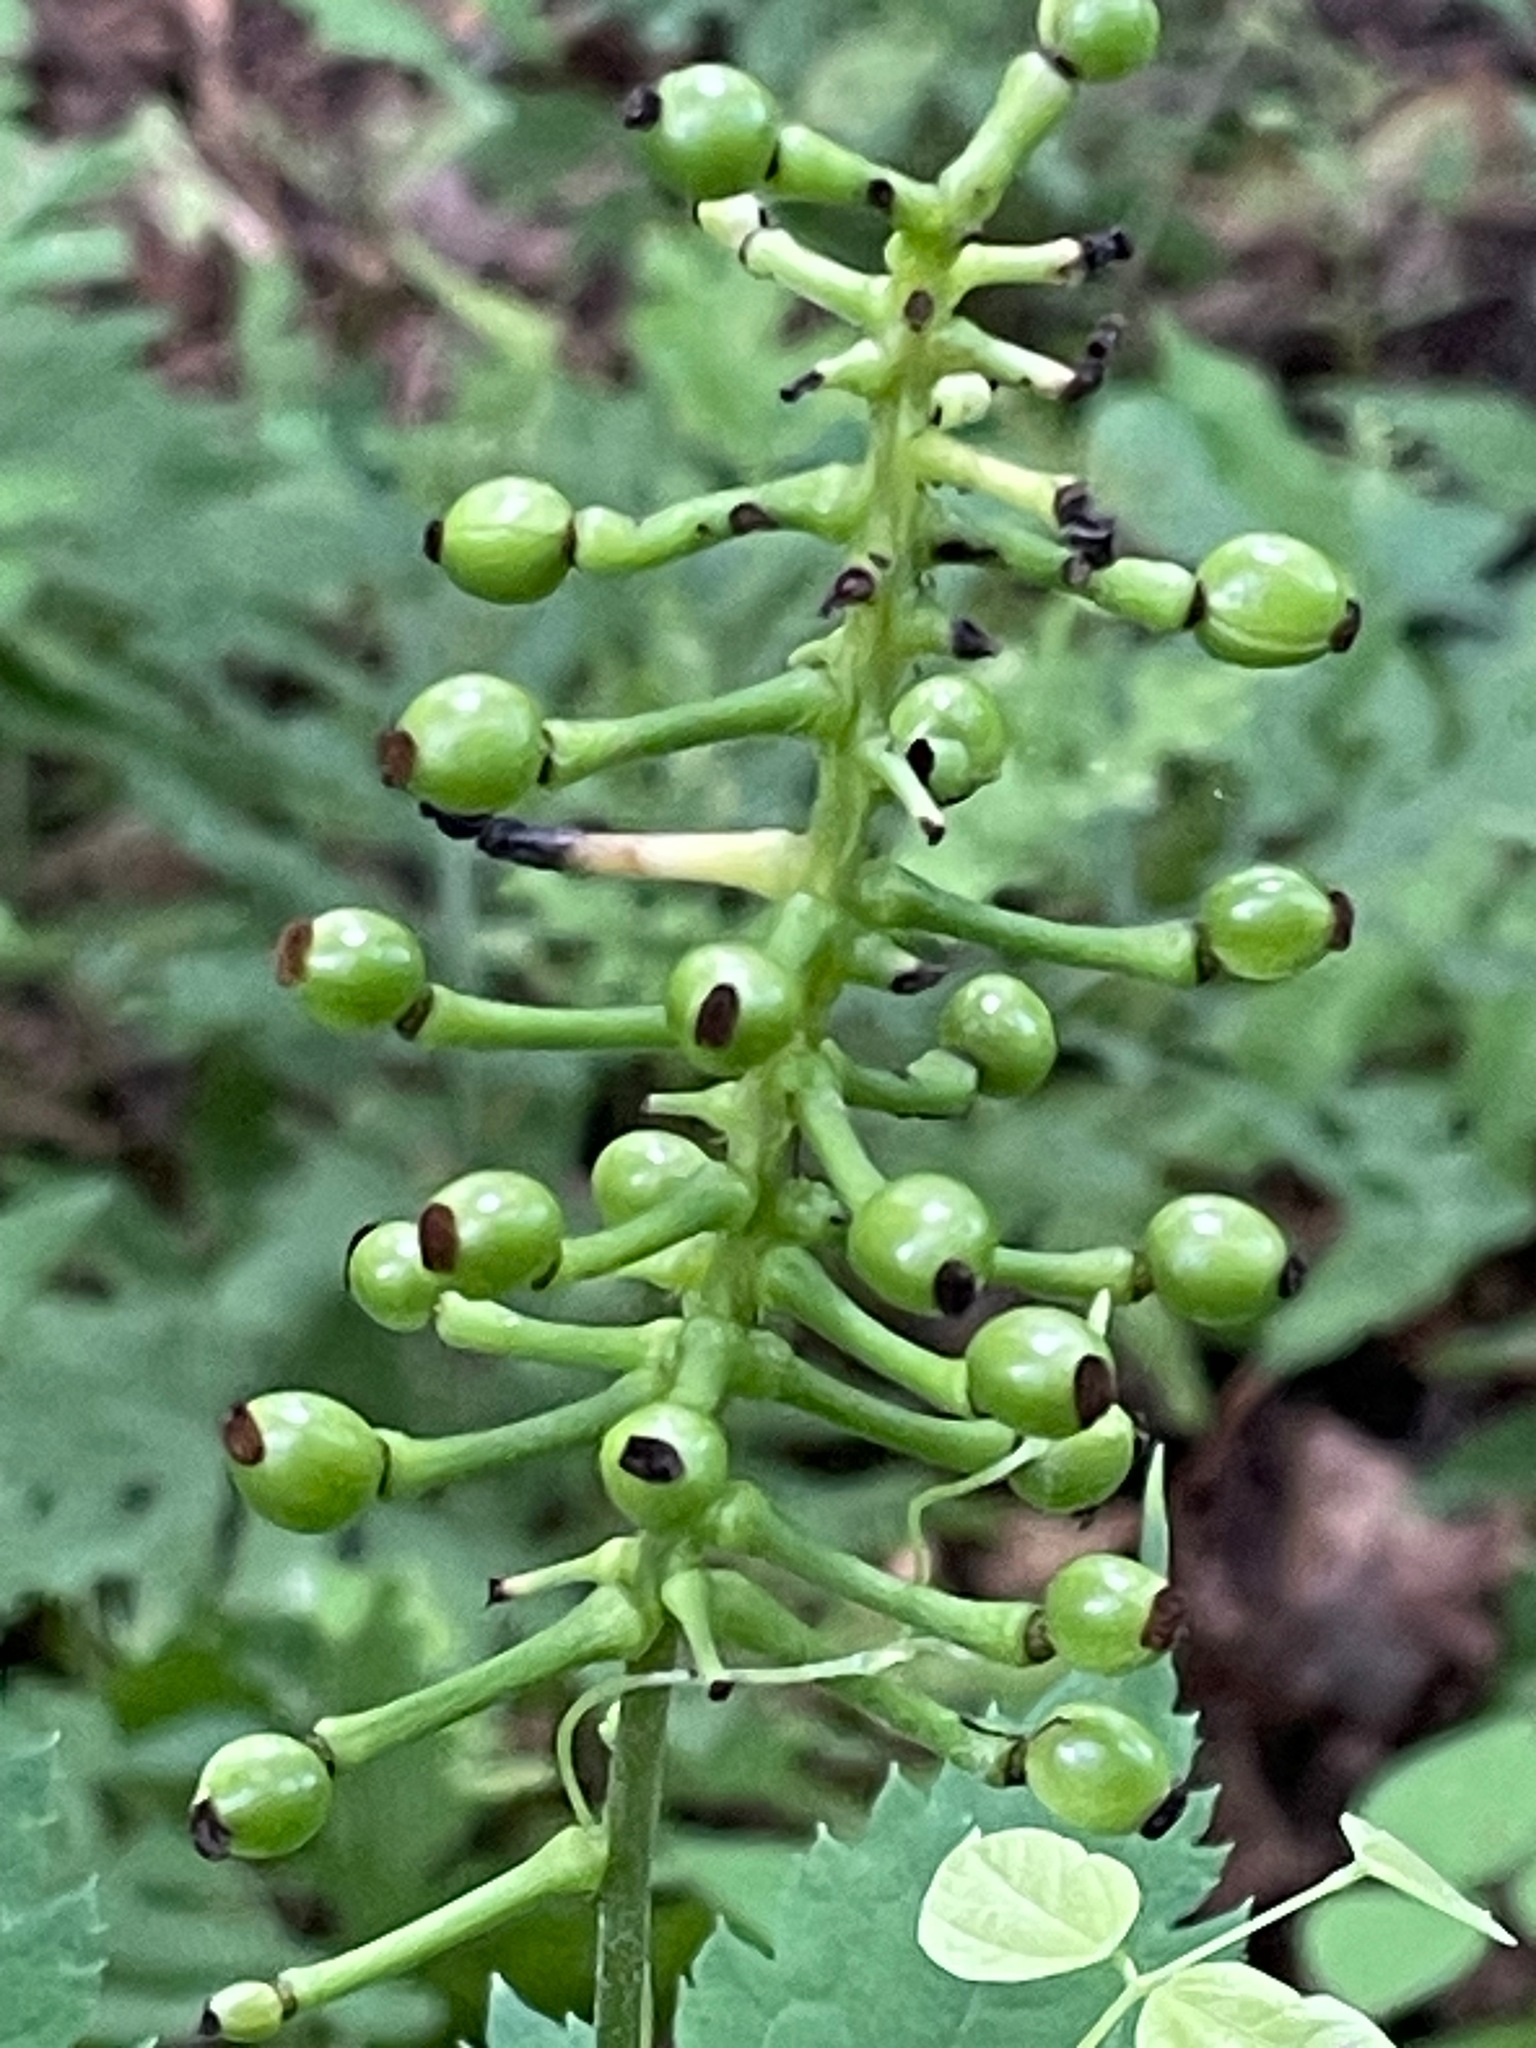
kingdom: Plantae
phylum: Tracheophyta
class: Magnoliopsida
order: Ranunculales
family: Ranunculaceae
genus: Actaea
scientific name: Actaea pachypoda
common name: Doll's-eyes
